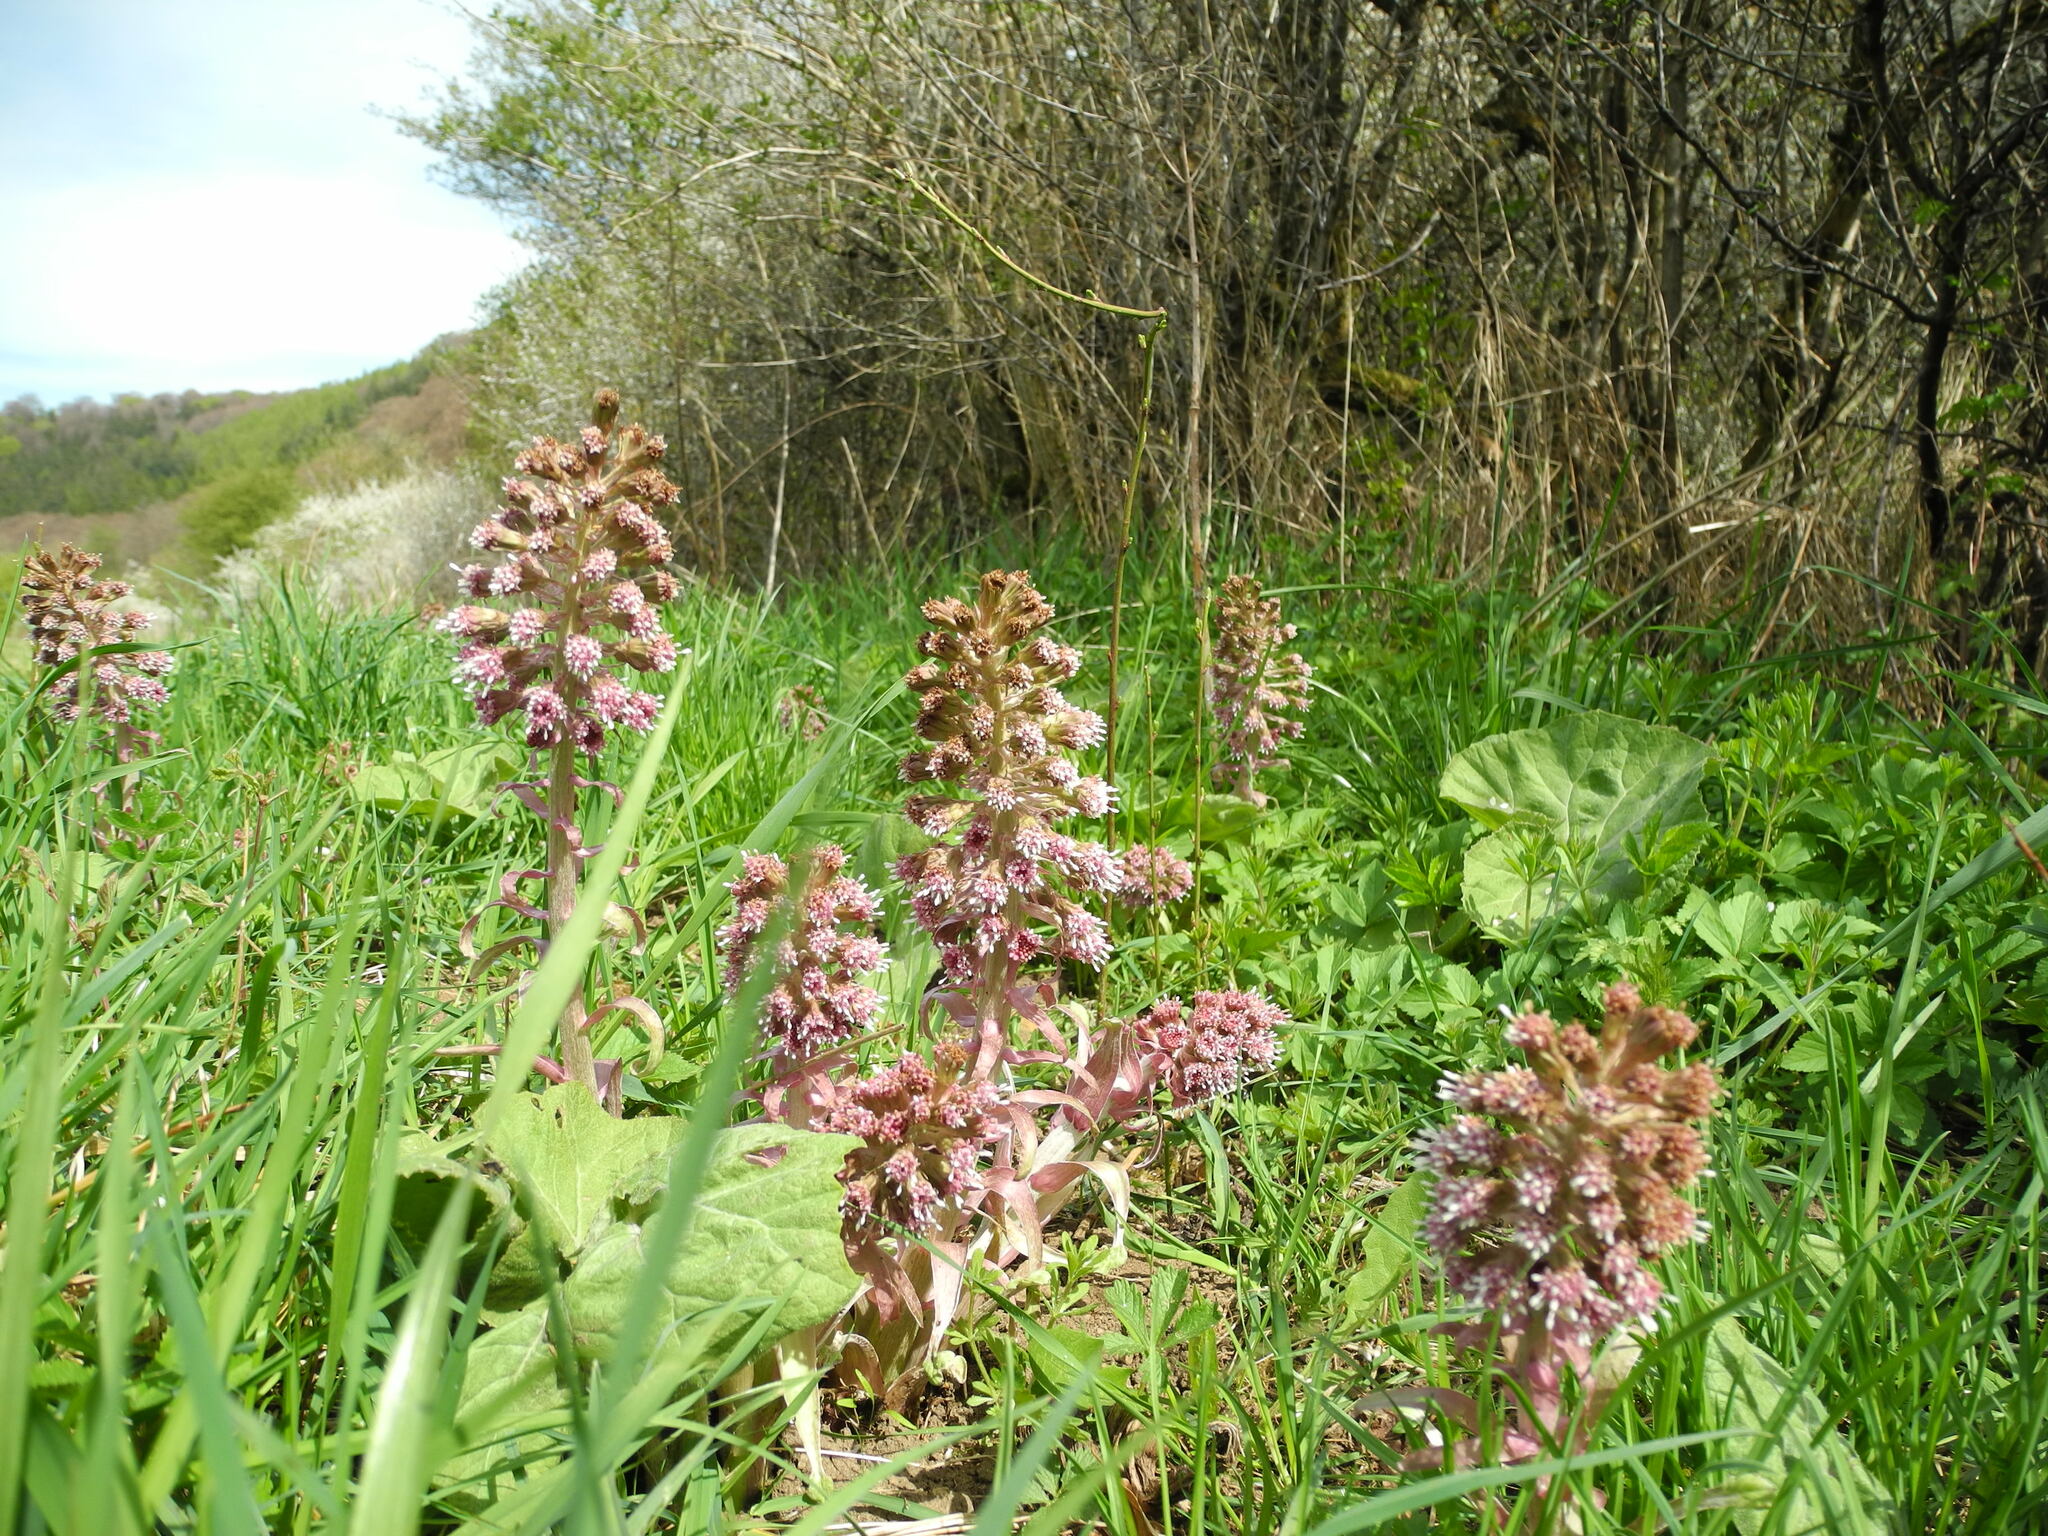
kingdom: Plantae
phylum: Tracheophyta
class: Magnoliopsida
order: Asterales
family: Asteraceae
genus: Petasites
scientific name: Petasites hybridus
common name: Butterbur
